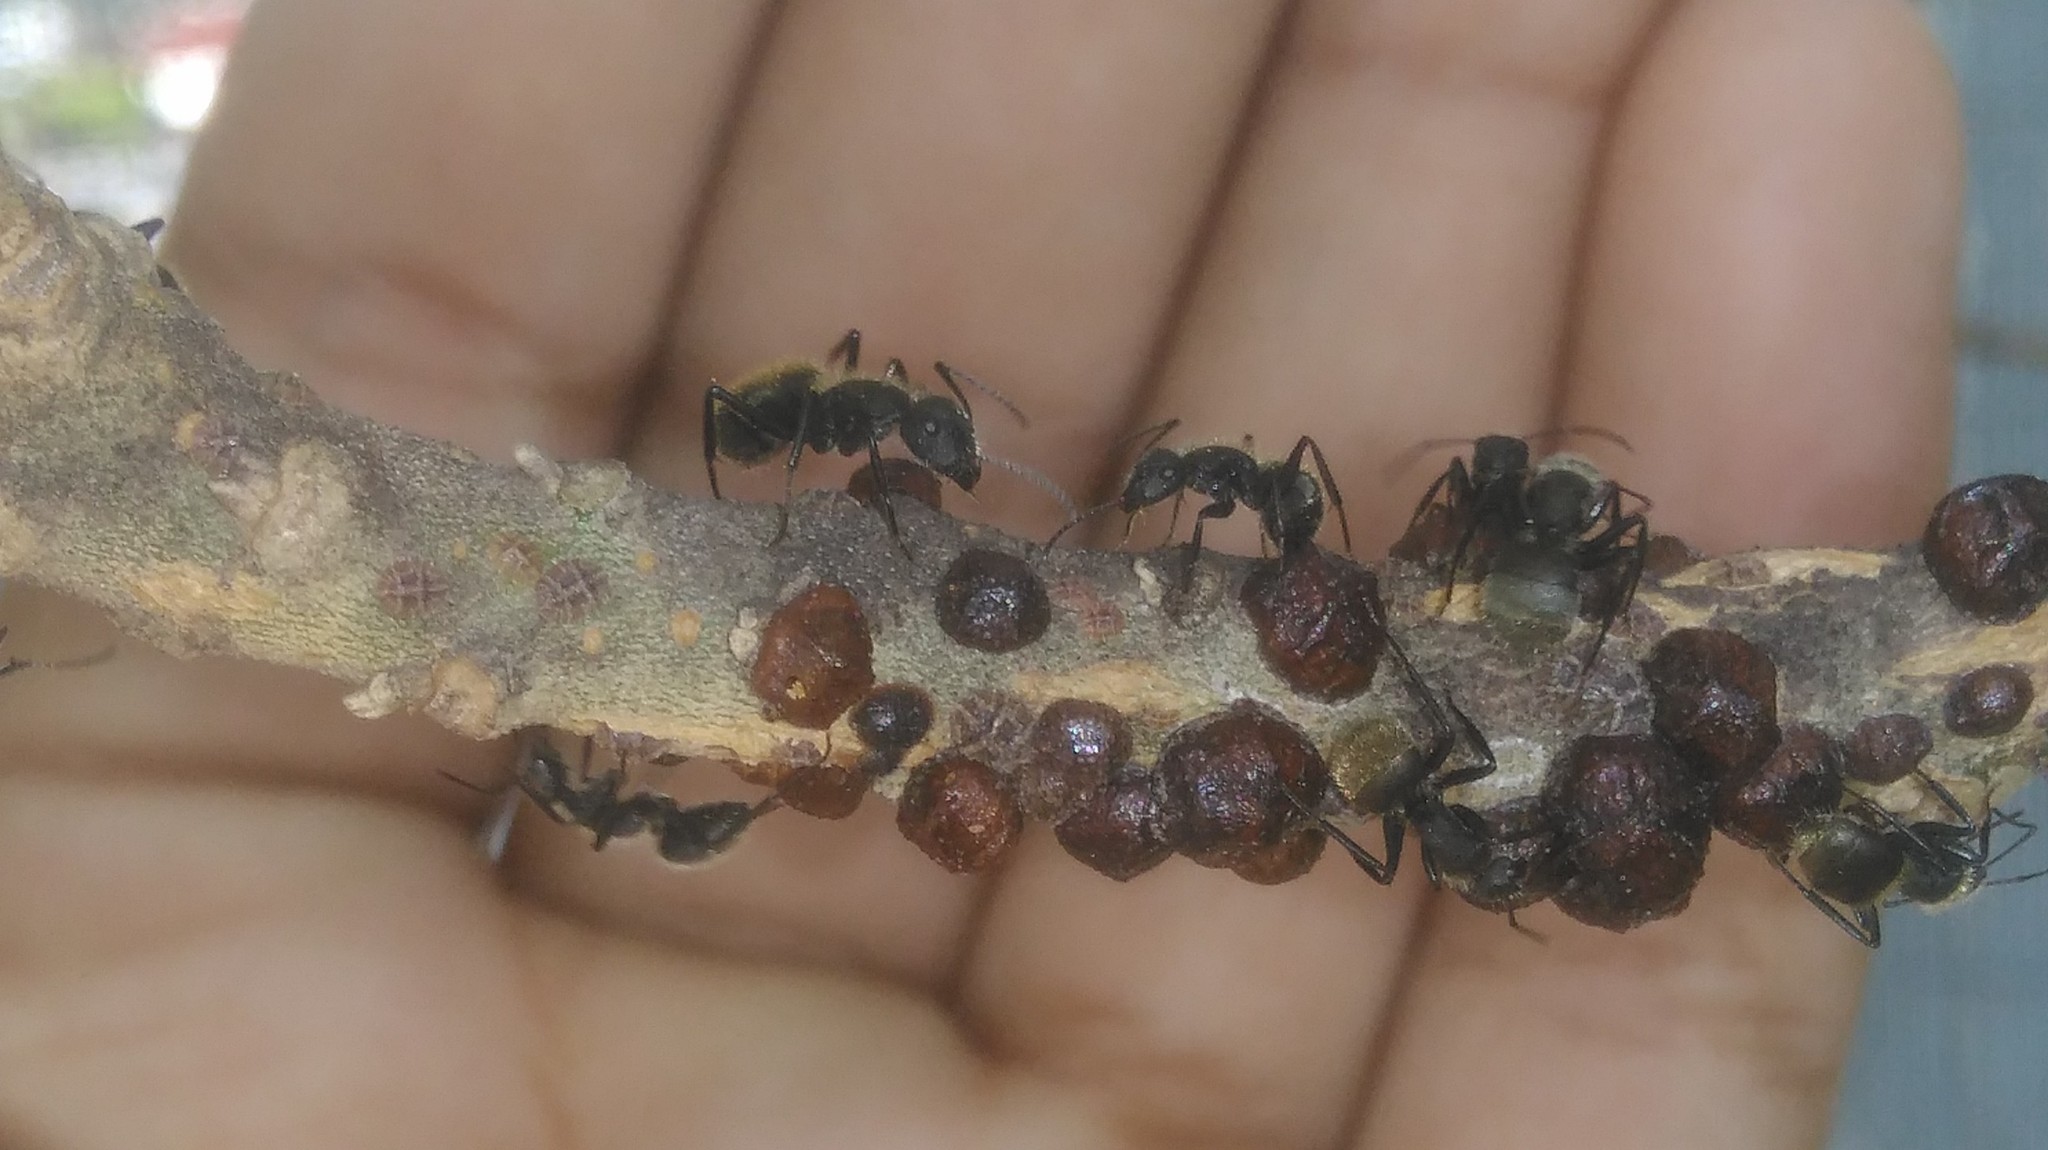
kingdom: Animalia
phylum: Arthropoda
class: Insecta
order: Hymenoptera
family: Formicidae
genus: Camponotus
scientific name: Camponotus mus
